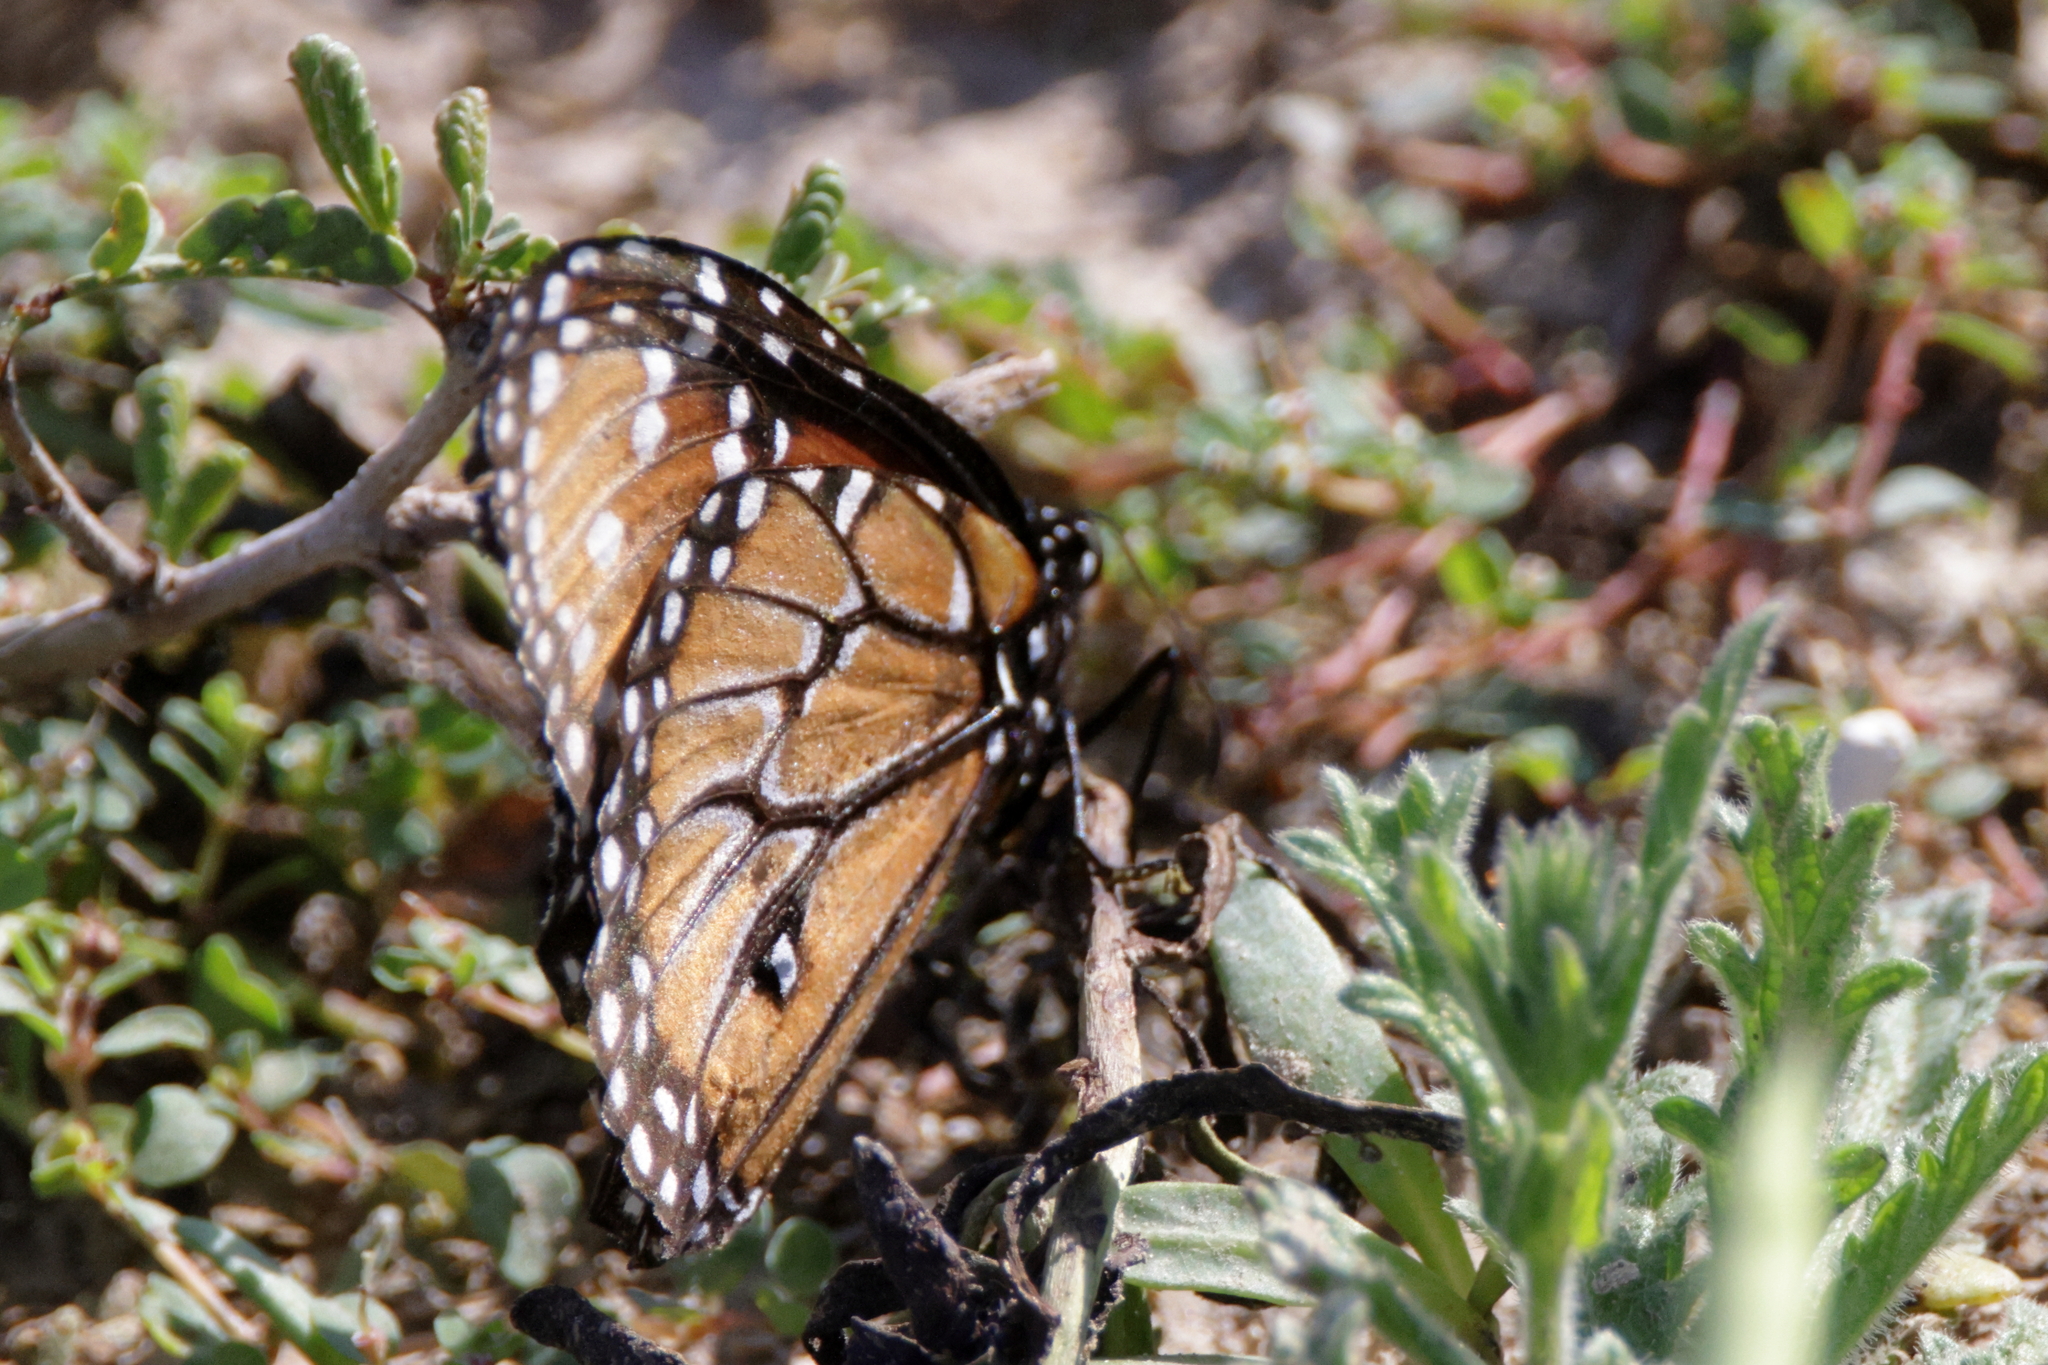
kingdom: Animalia
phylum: Arthropoda
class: Insecta
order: Lepidoptera
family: Nymphalidae
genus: Danaus
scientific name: Danaus gilippus
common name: Queen
